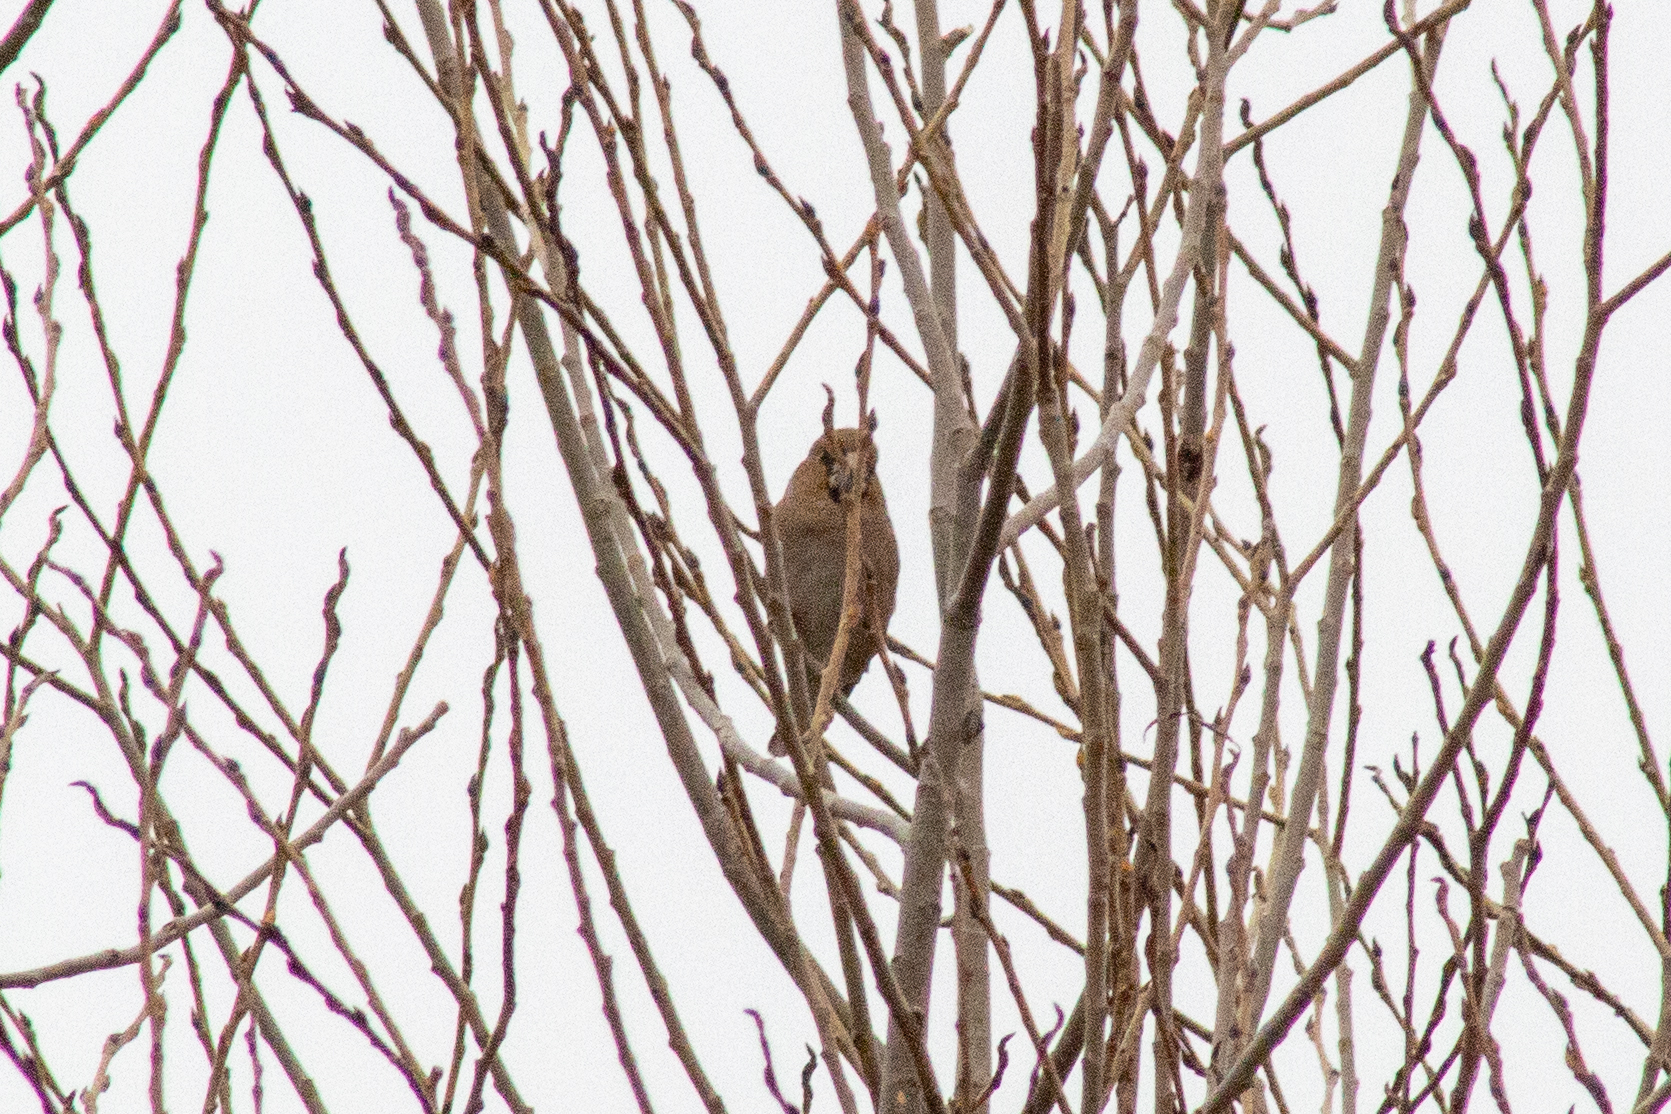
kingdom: Animalia
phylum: Chordata
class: Aves
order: Passeriformes
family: Fringillidae
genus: Coccothraustes
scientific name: Coccothraustes coccothraustes
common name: Hawfinch
